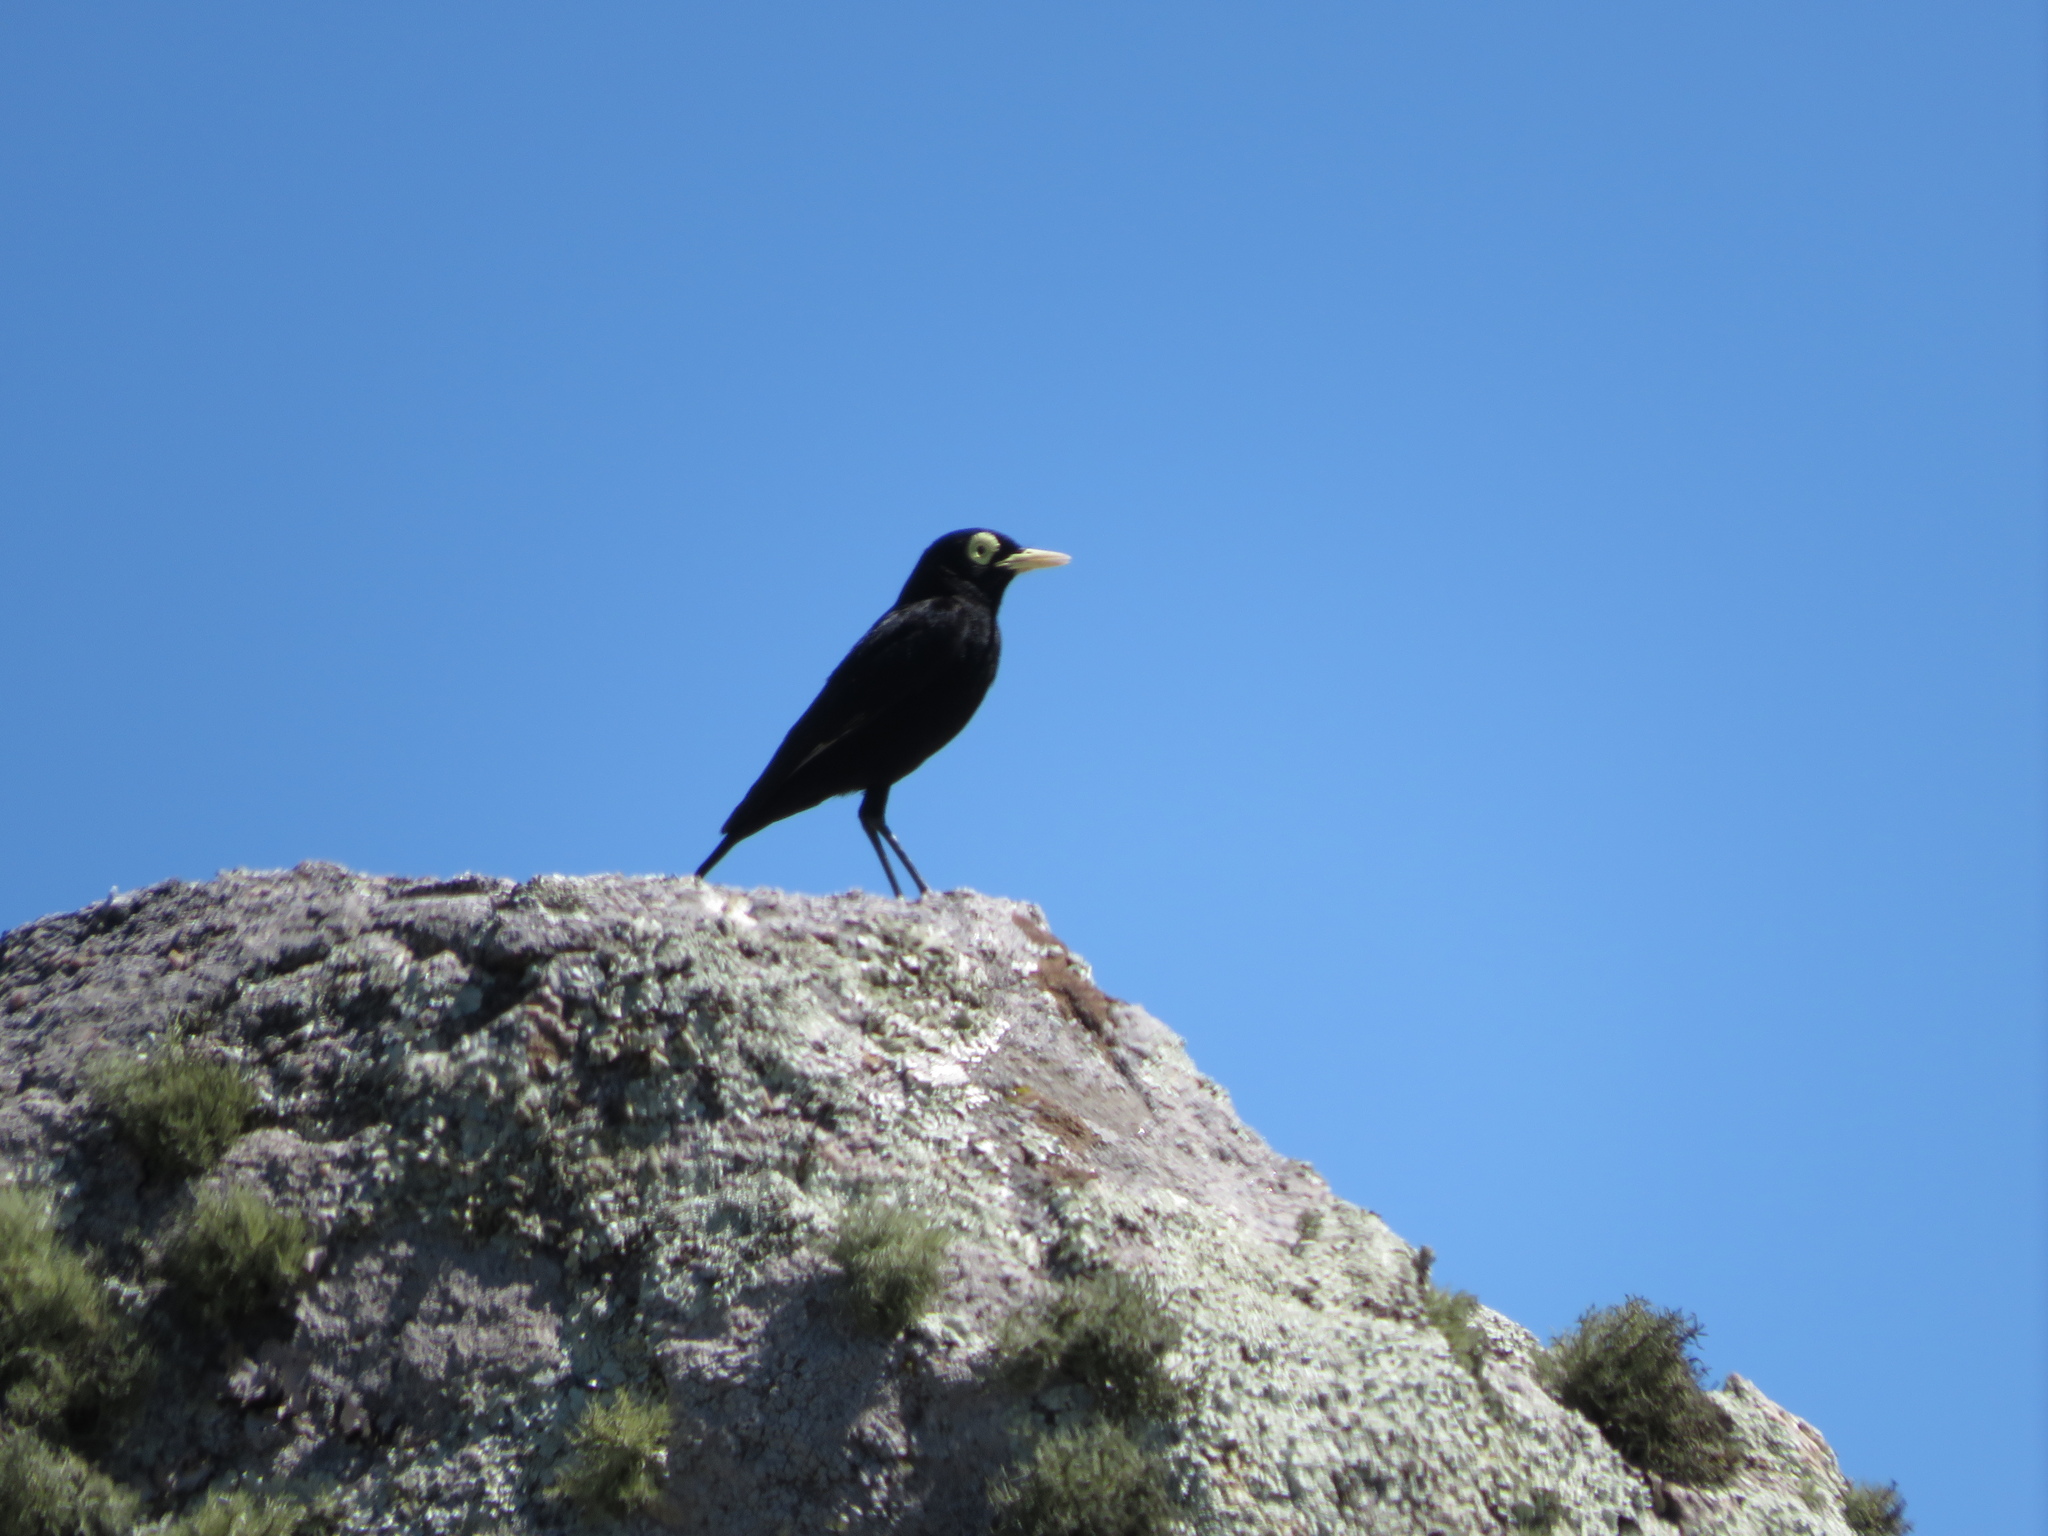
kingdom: Animalia
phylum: Chordata
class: Aves
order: Passeriformes
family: Tyrannidae
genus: Hymenops
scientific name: Hymenops perspicillatus
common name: Spectacled tyrant
